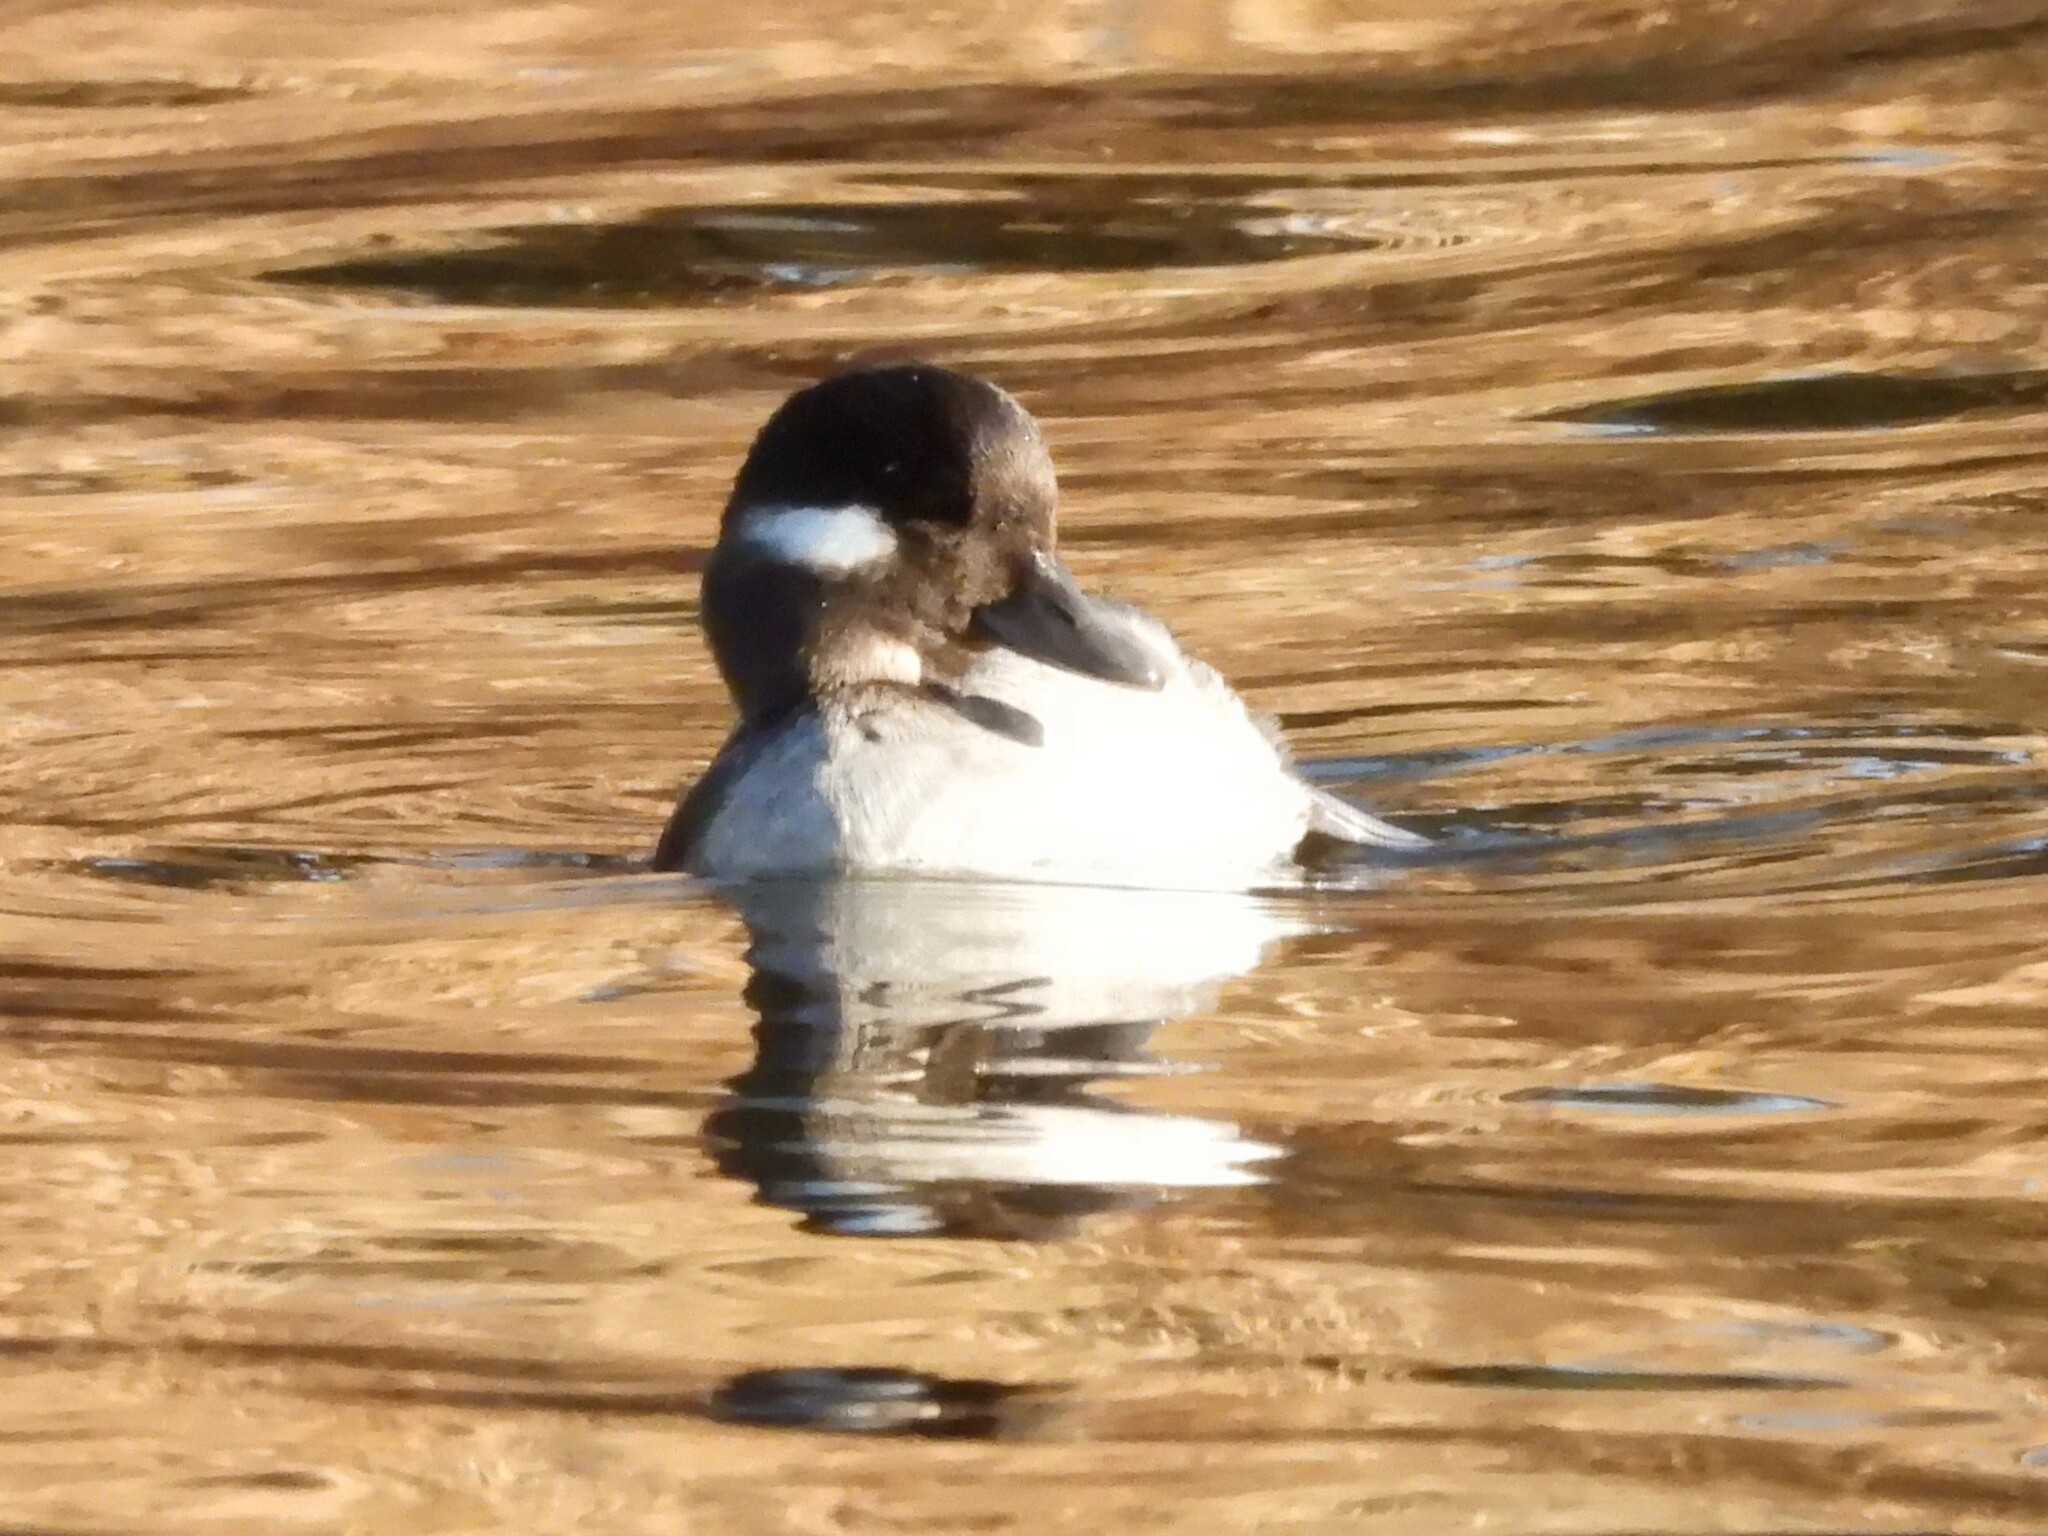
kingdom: Animalia
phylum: Chordata
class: Aves
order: Anseriformes
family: Anatidae
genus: Bucephala
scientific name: Bucephala albeola
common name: Bufflehead
